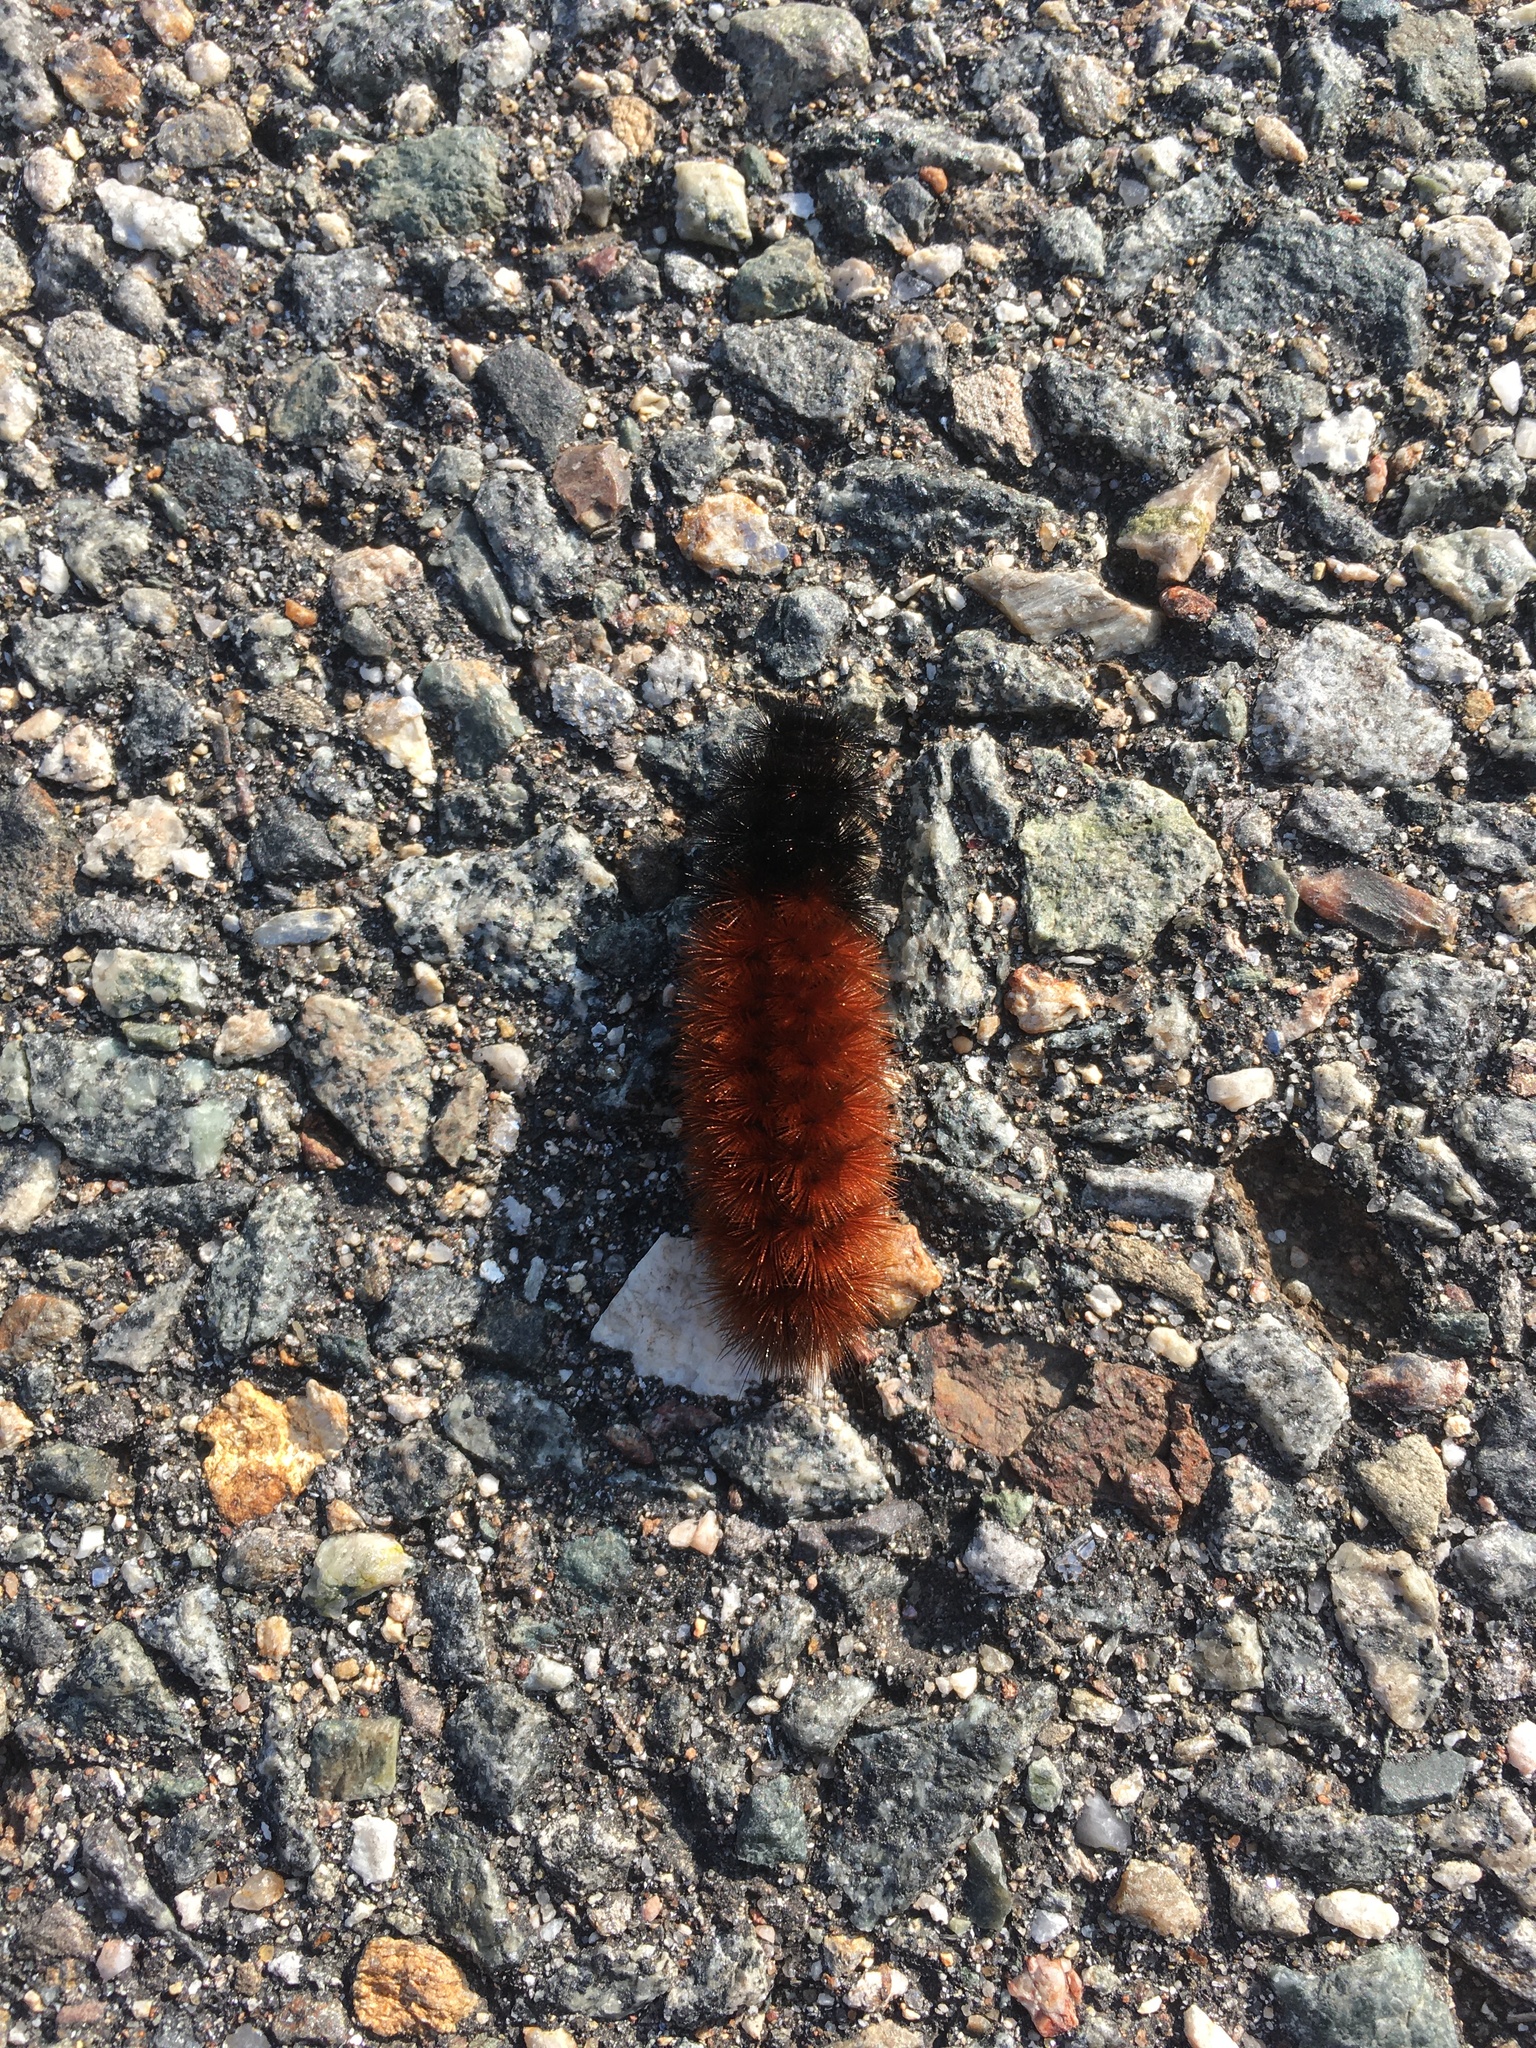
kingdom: Animalia
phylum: Arthropoda
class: Insecta
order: Lepidoptera
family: Erebidae
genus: Pyrrharctia
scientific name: Pyrrharctia isabella
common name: Isabella tiger moth
